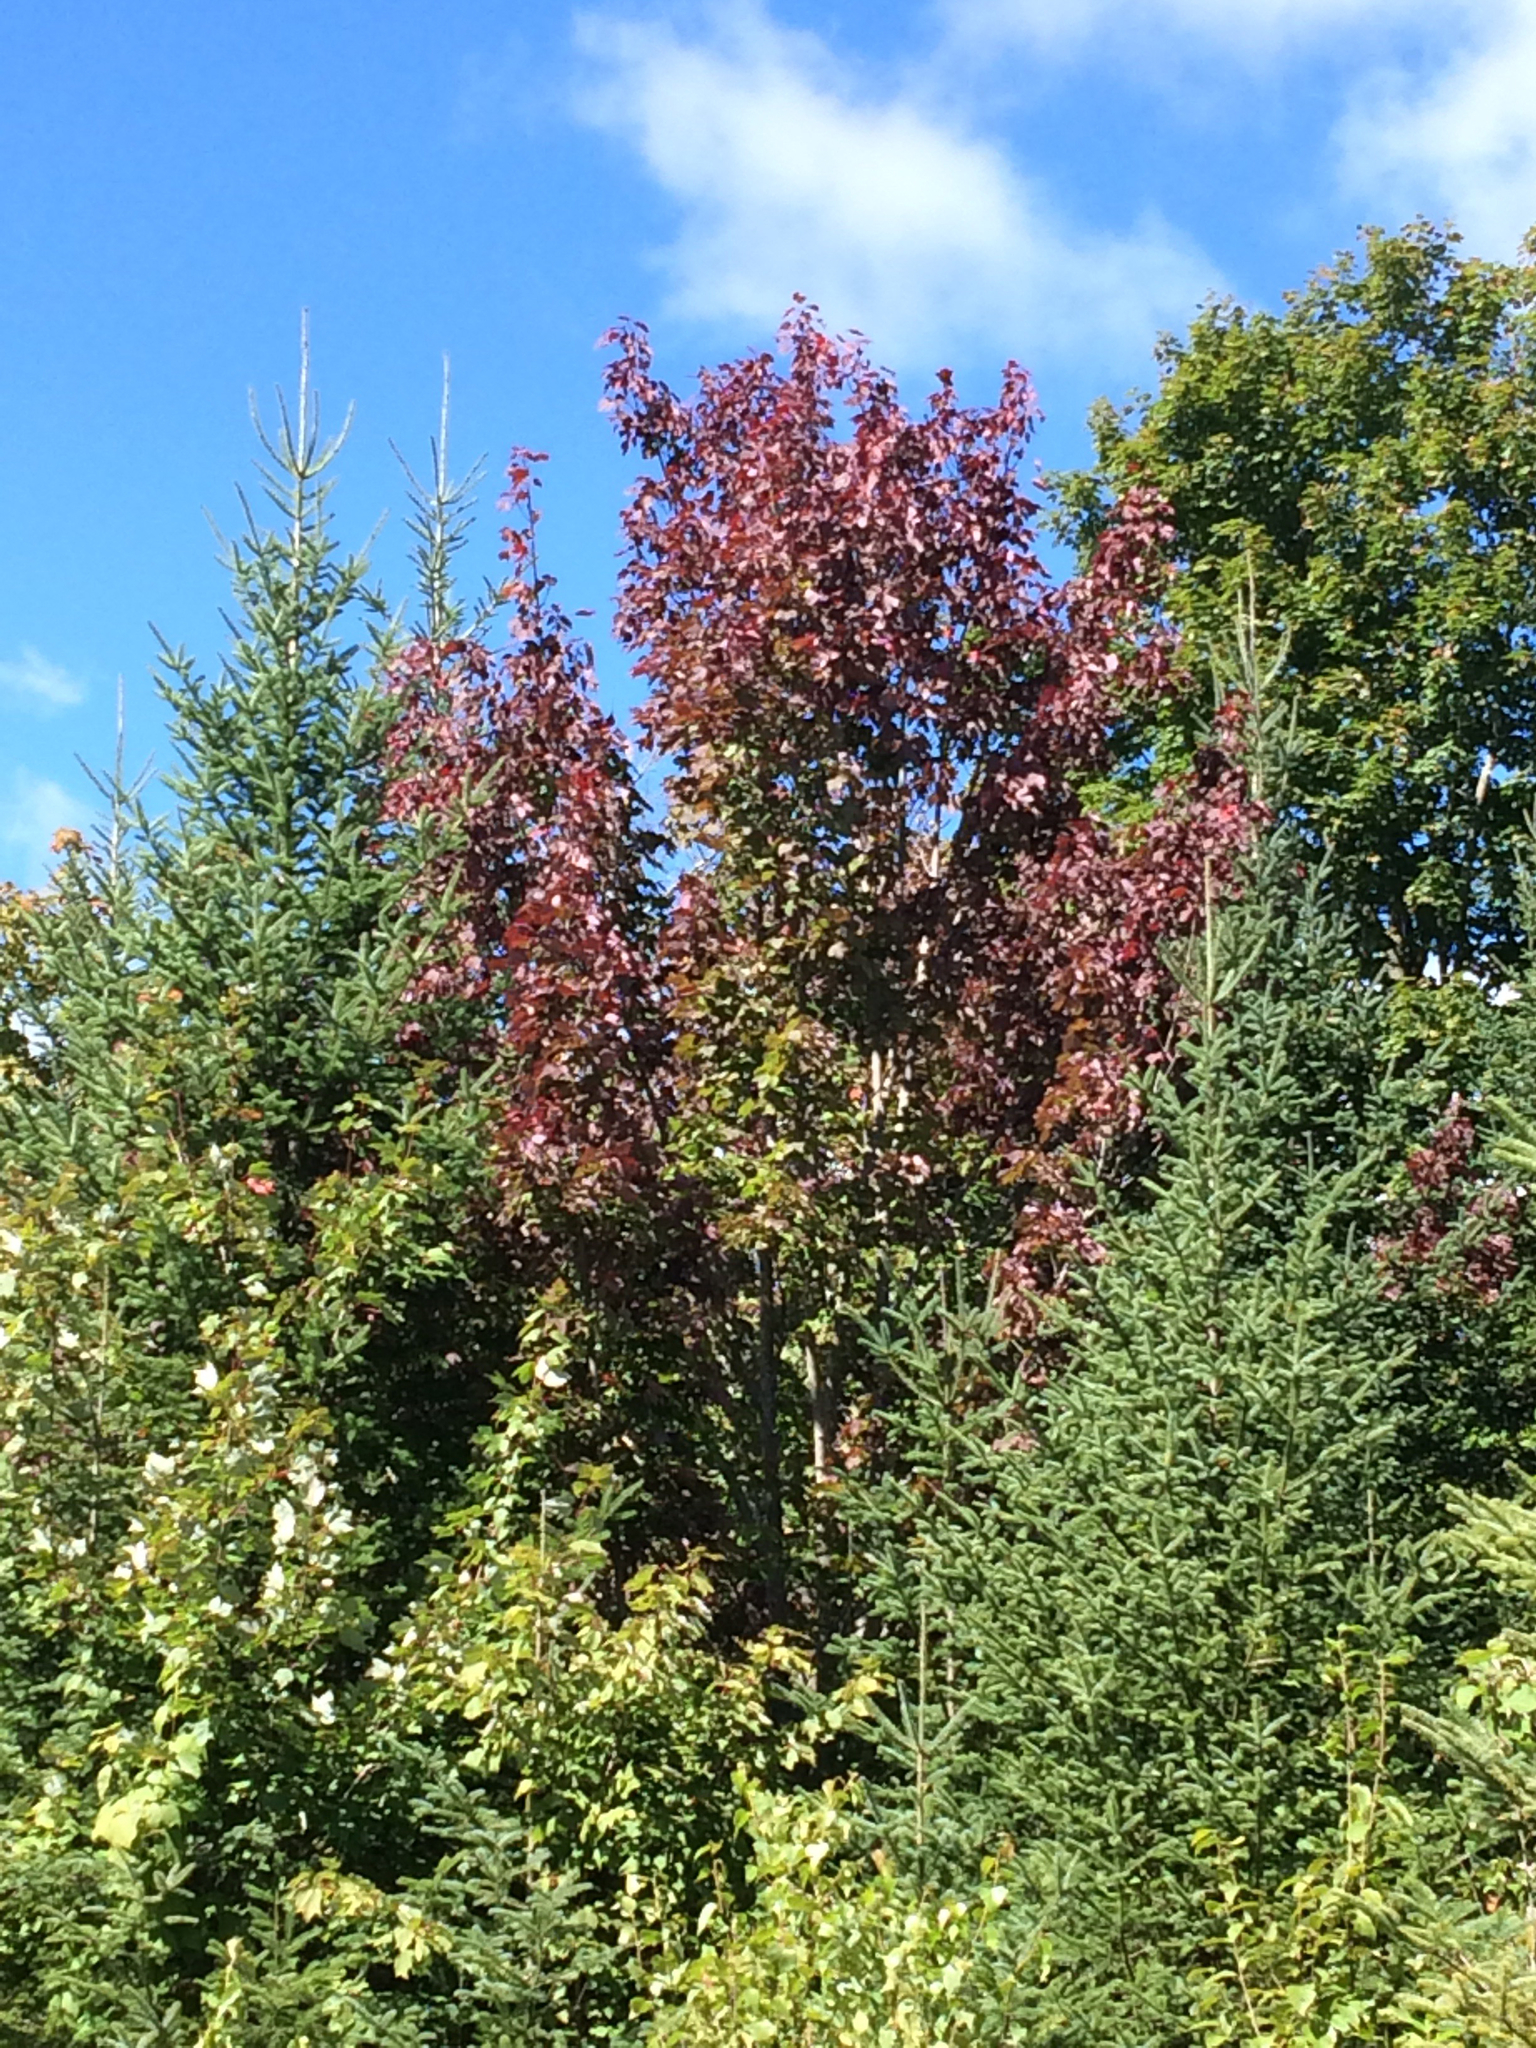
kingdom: Plantae
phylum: Tracheophyta
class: Magnoliopsida
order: Sapindales
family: Sapindaceae
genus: Acer
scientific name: Acer rubrum
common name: Red maple
